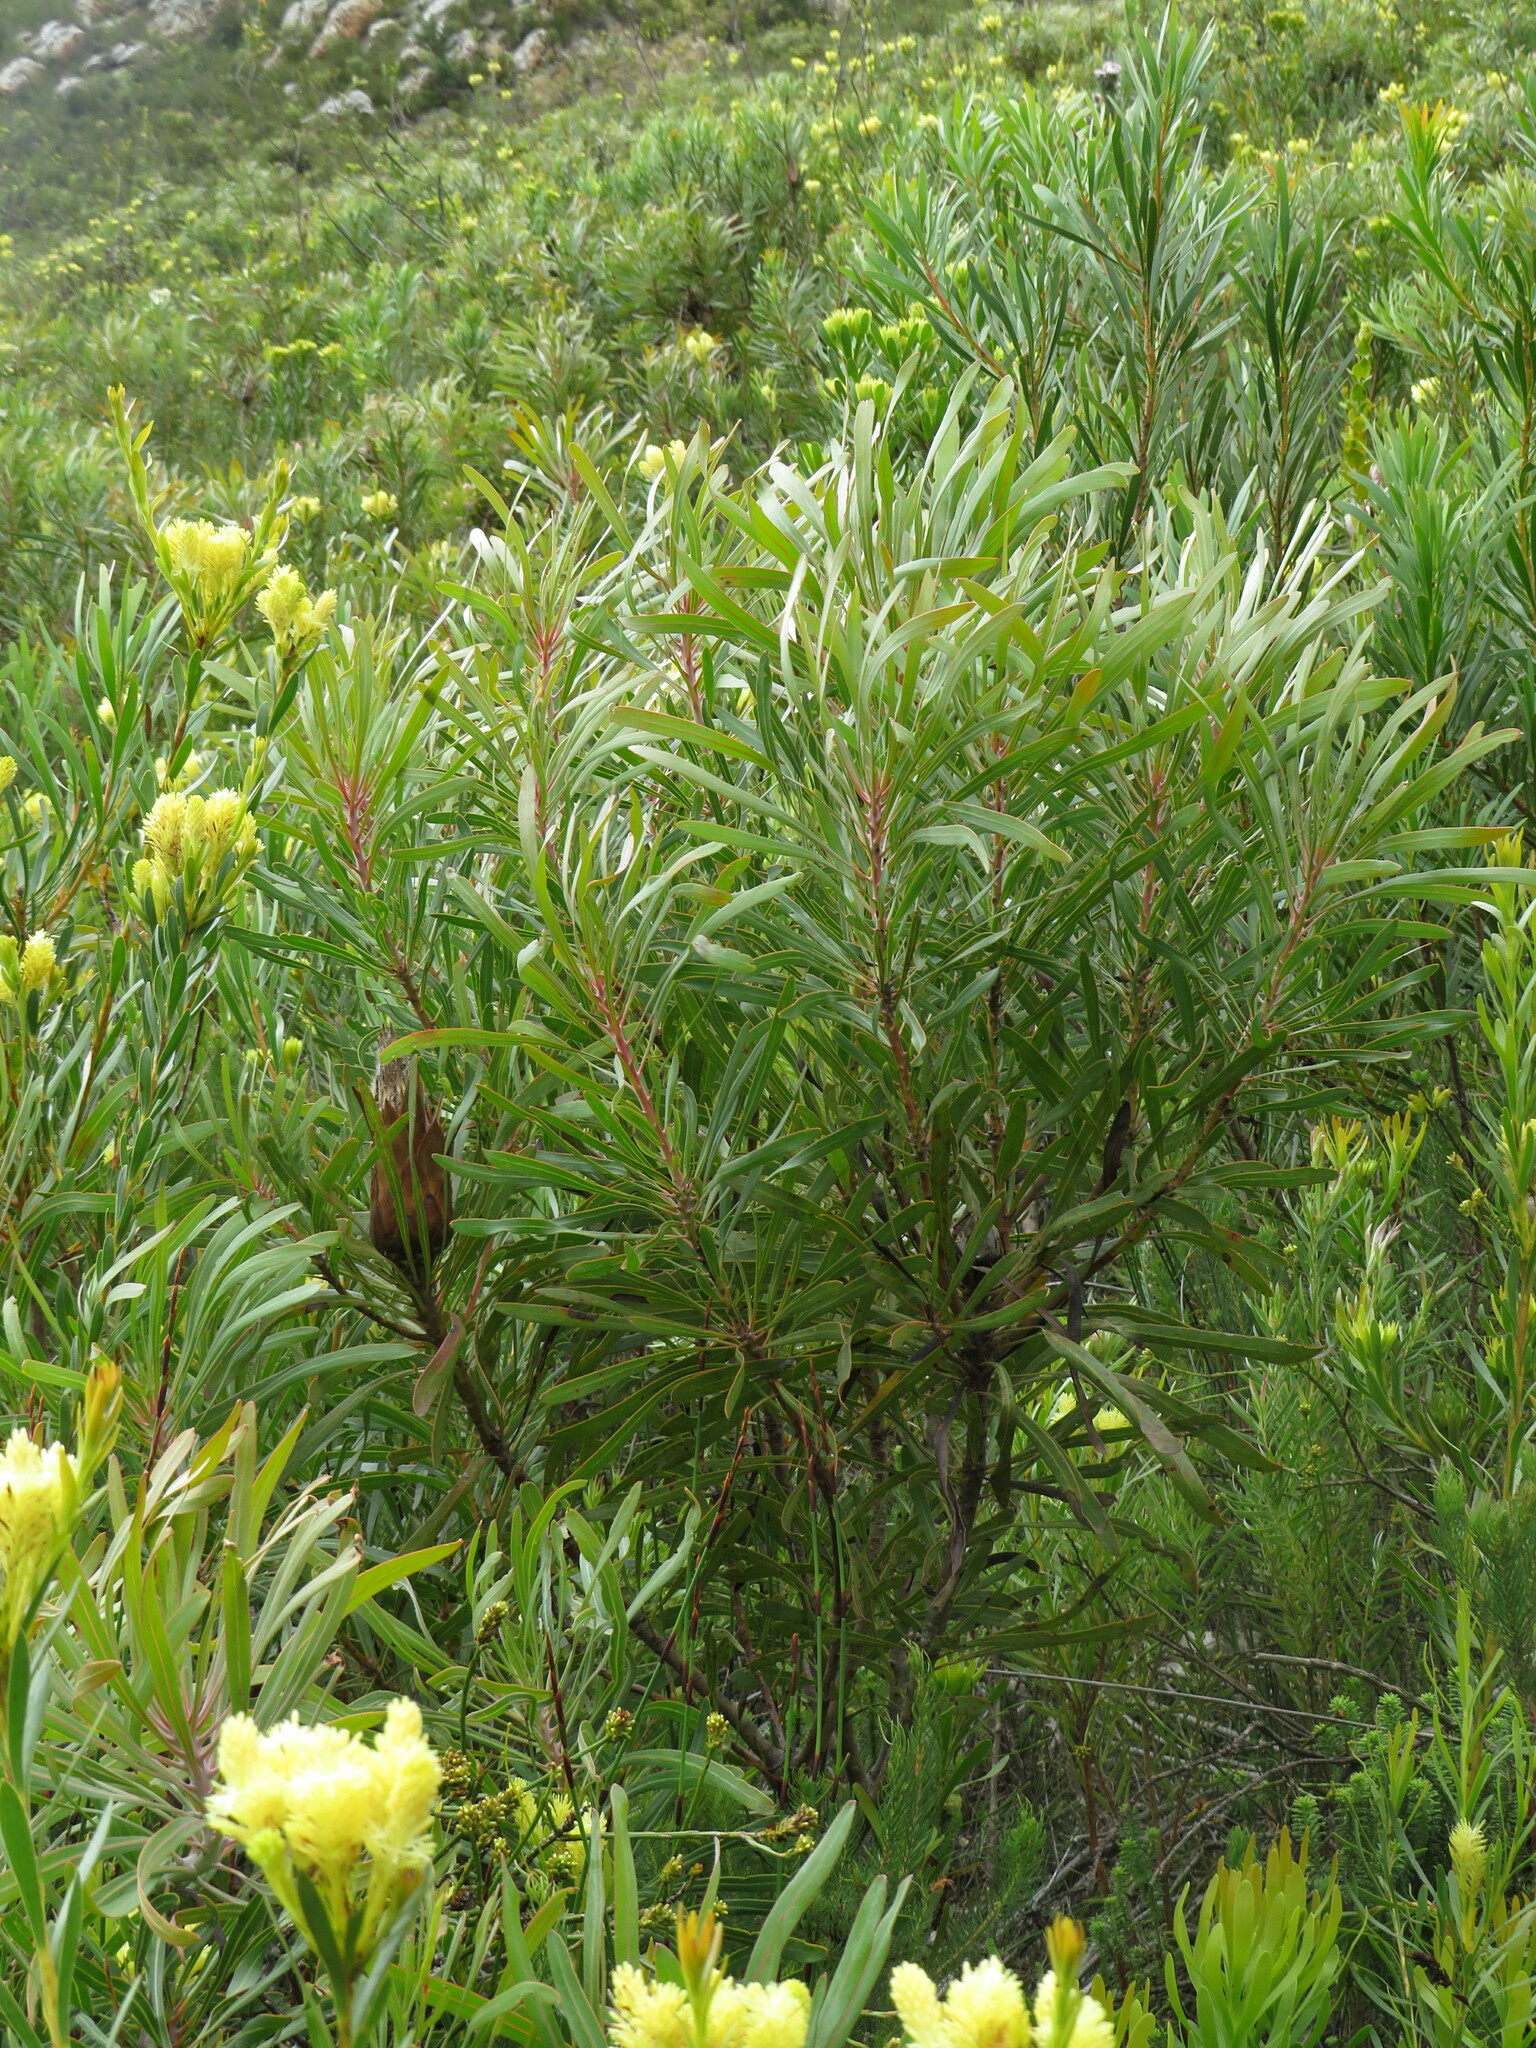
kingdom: Plantae
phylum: Tracheophyta
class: Magnoliopsida
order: Proteales
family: Proteaceae
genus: Protea
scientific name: Protea longifolia
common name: Long-leaf sugarbush
